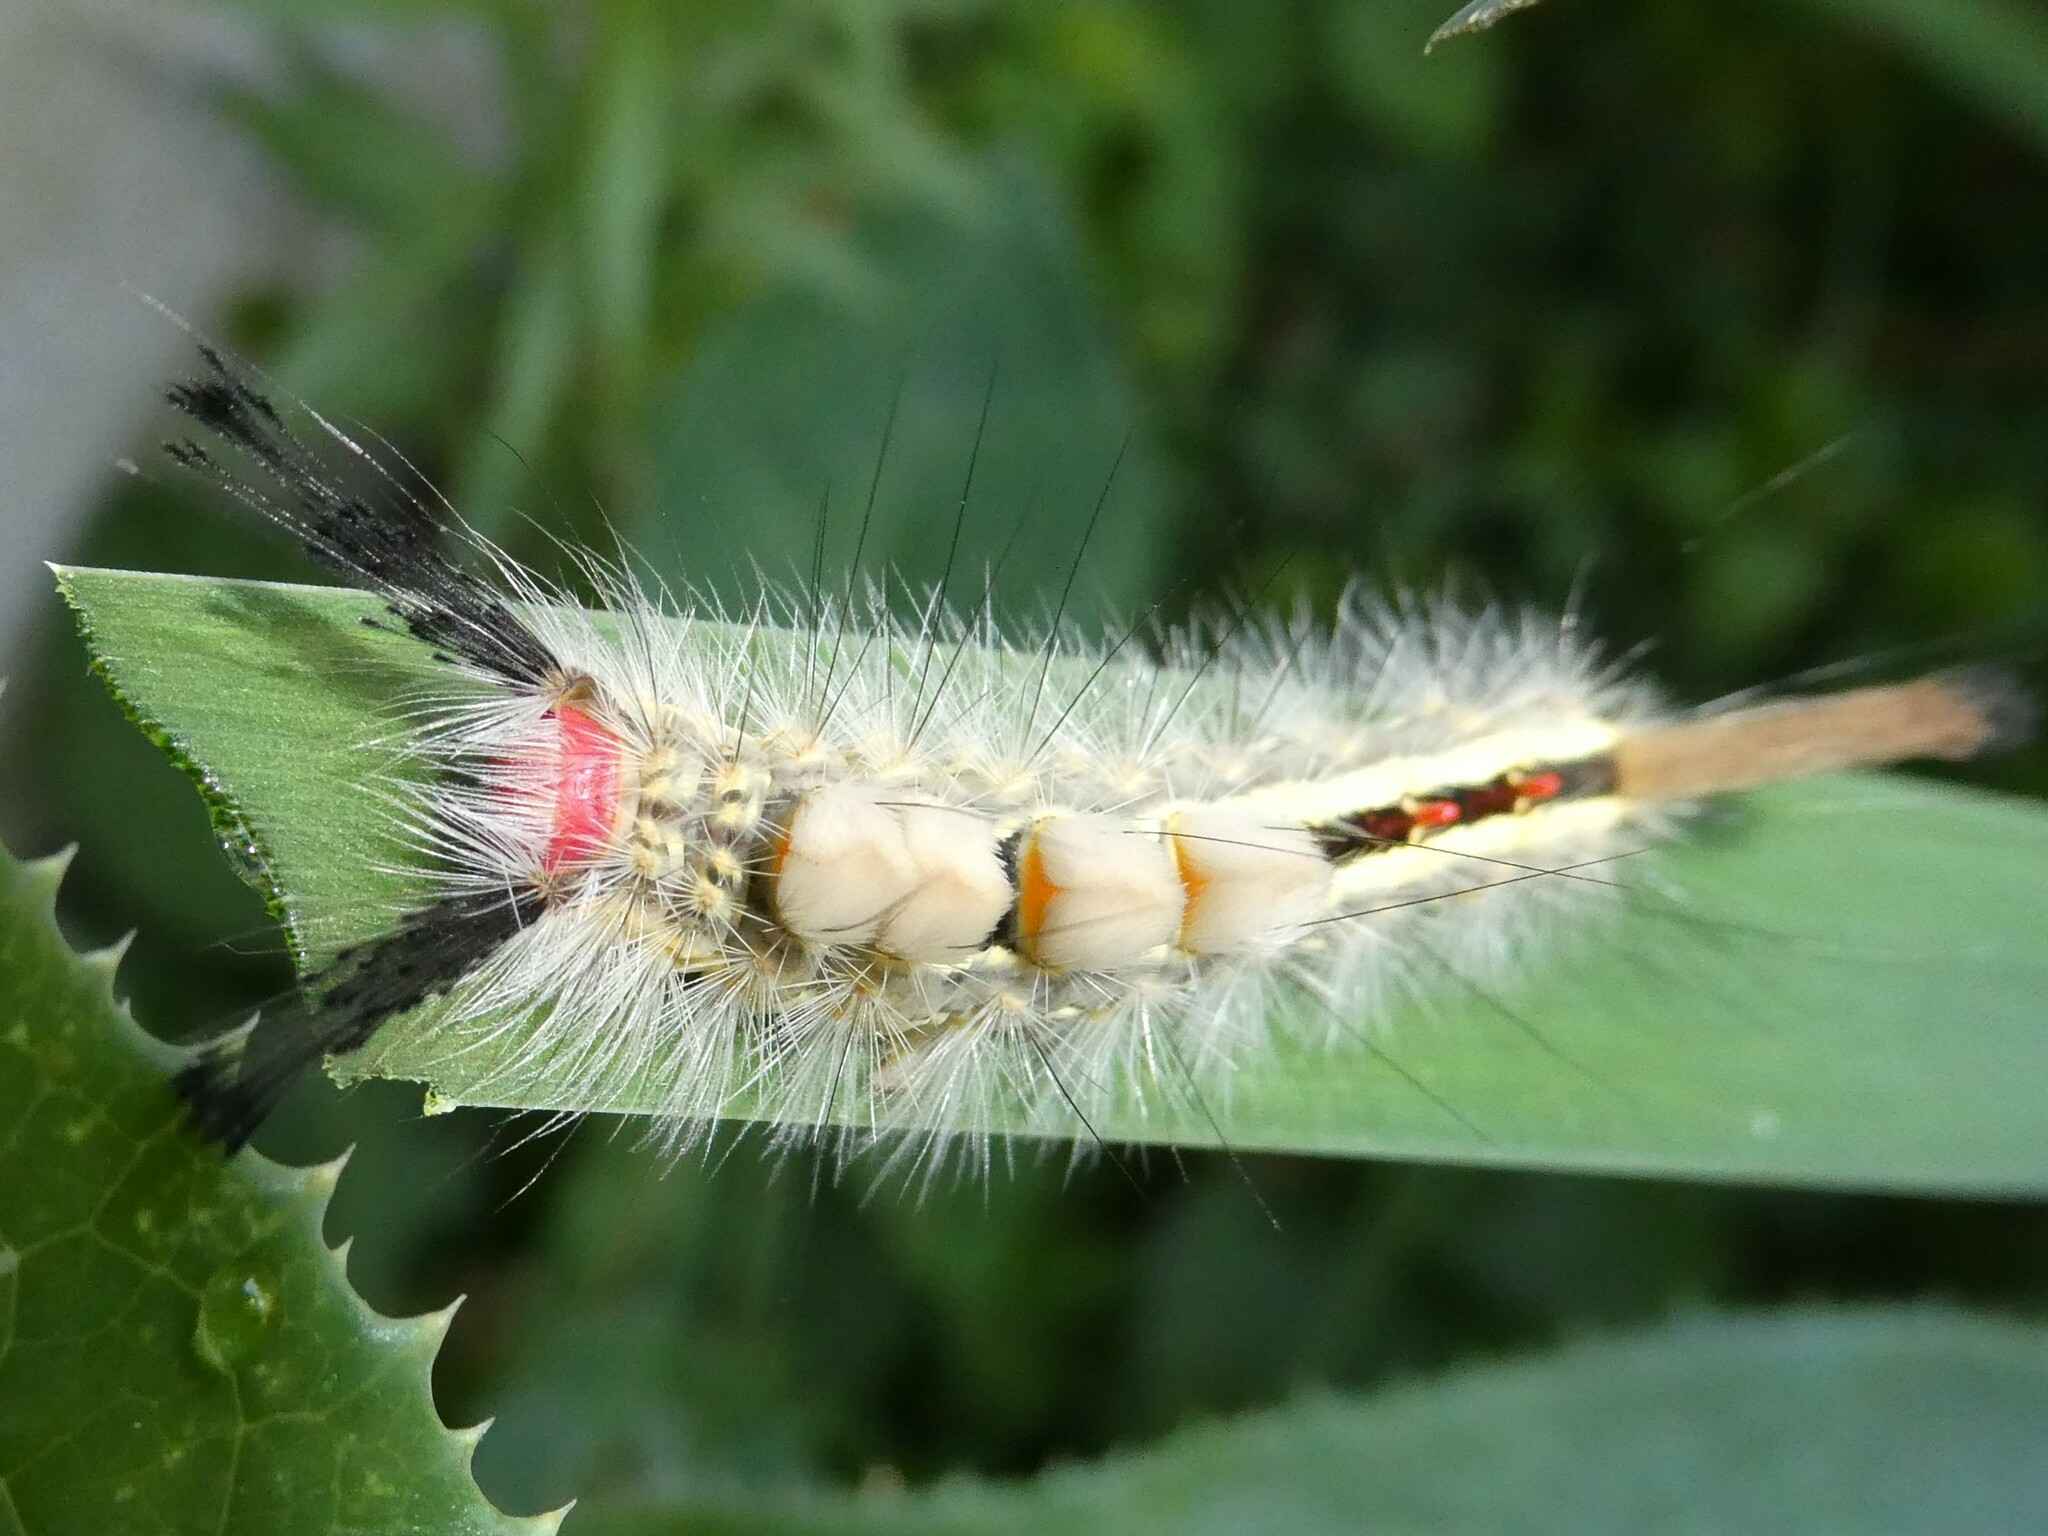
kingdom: Animalia
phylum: Arthropoda
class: Insecta
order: Lepidoptera
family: Erebidae
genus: Orgyia
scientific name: Orgyia leucostigma
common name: White-marked tussock moth
